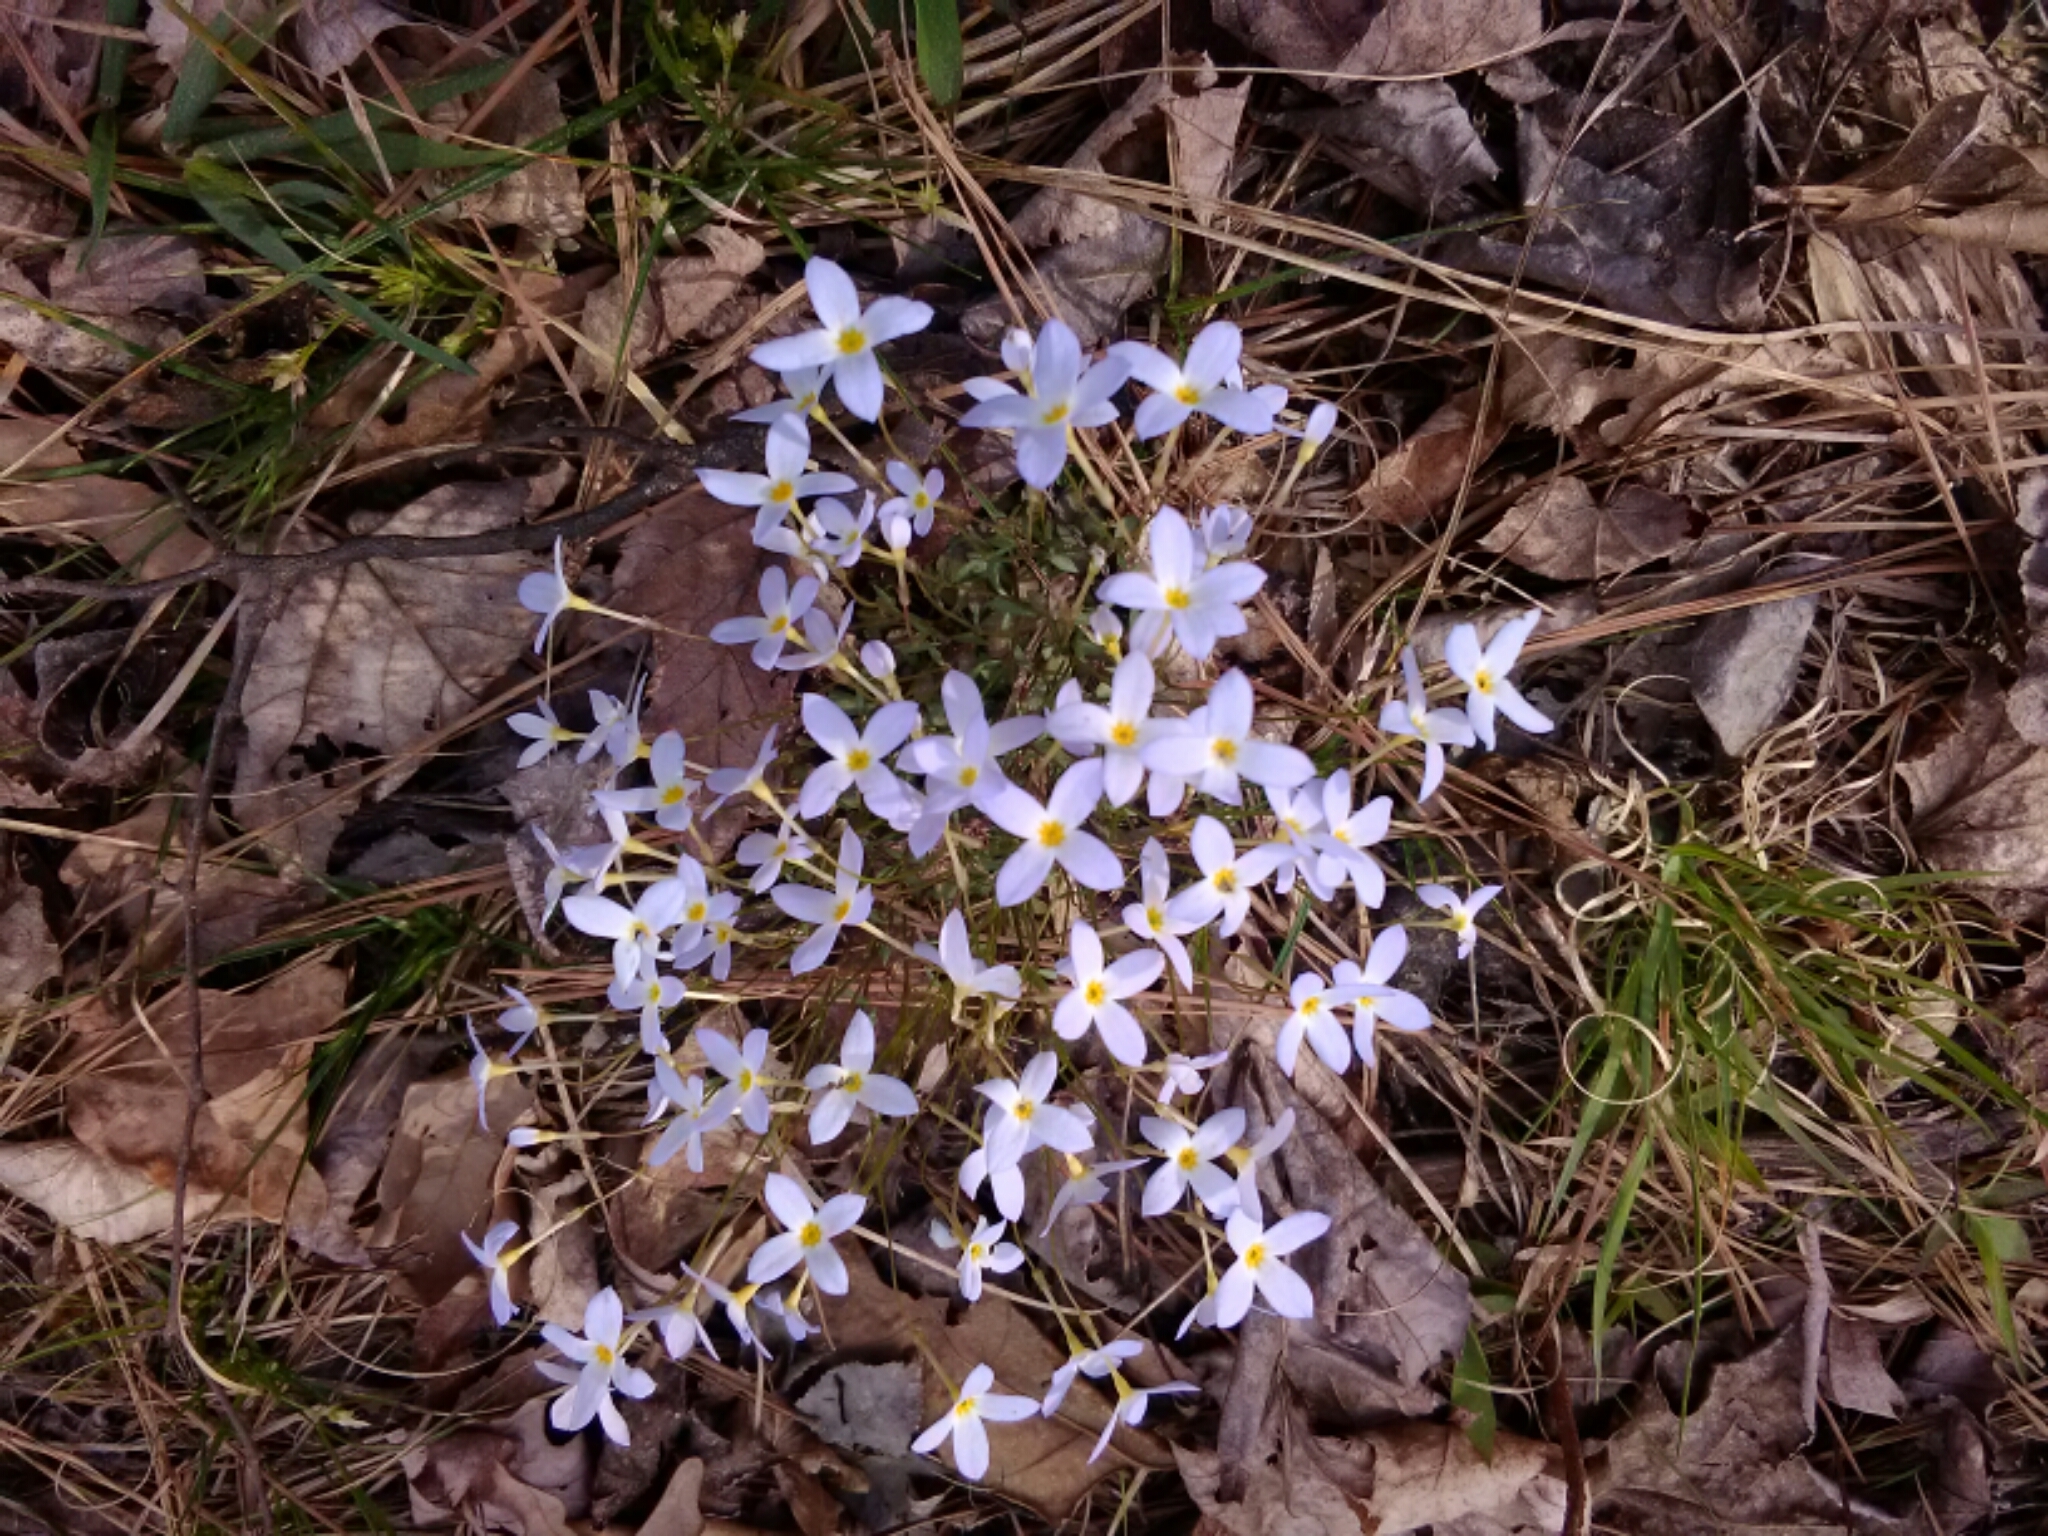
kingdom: Plantae
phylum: Tracheophyta
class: Magnoliopsida
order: Gentianales
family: Rubiaceae
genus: Houstonia
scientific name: Houstonia caerulea
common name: Bluets
